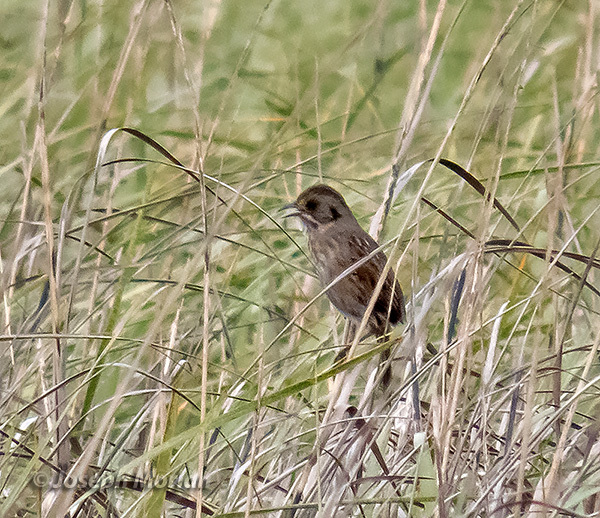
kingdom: Animalia
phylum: Chordata
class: Aves
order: Passeriformes
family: Passerellidae
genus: Ammospiza
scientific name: Ammospiza maritima
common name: Seaside sparrow
